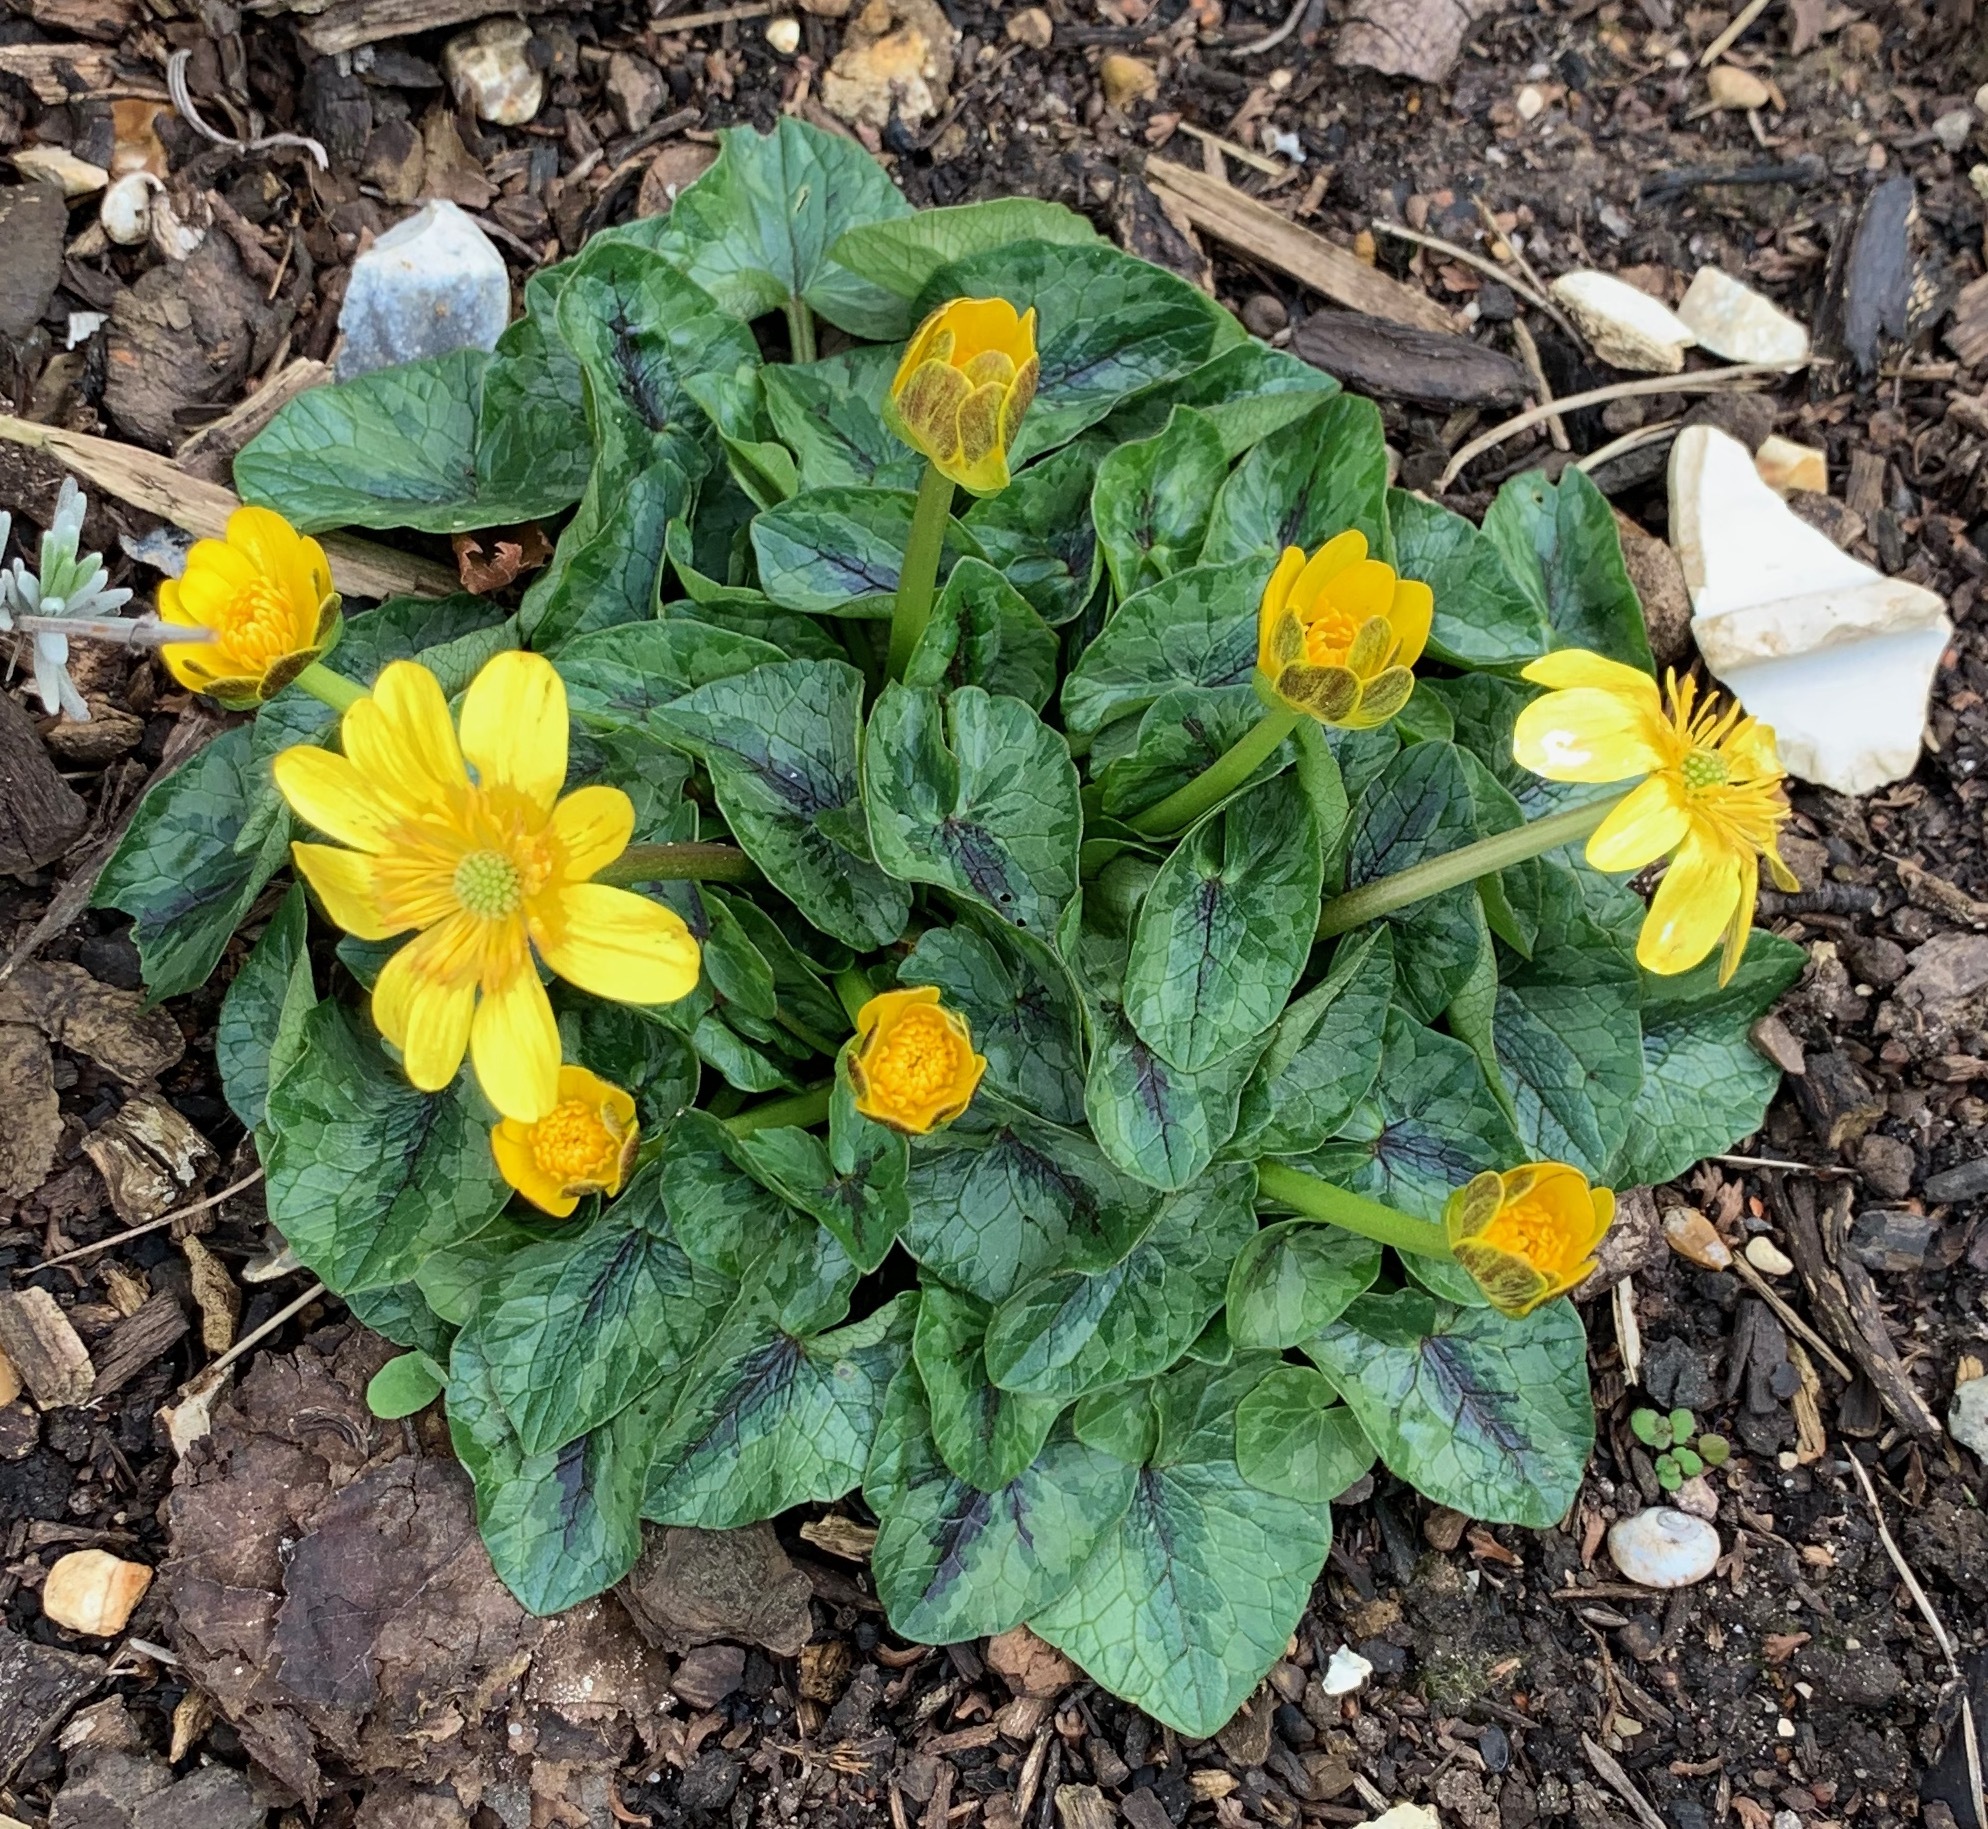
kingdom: Plantae
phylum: Tracheophyta
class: Magnoliopsida
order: Ranunculales
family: Ranunculaceae
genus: Ficaria
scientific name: Ficaria verna
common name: Lesser celandine
